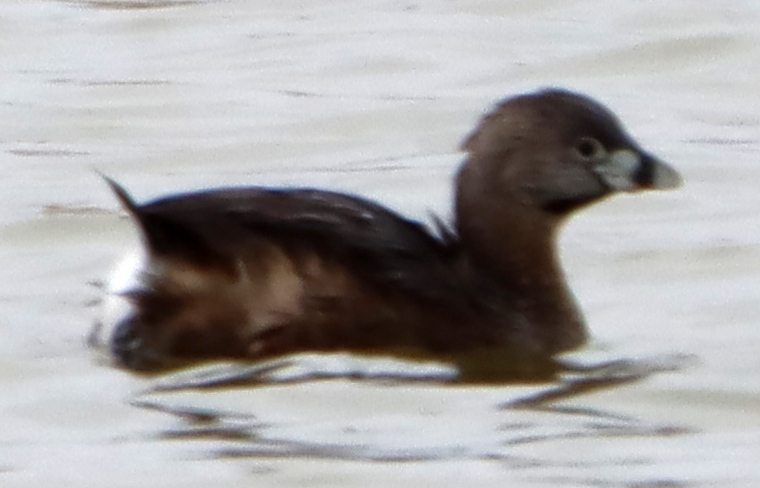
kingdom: Animalia
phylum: Chordata
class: Aves
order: Podicipediformes
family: Podicipedidae
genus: Podilymbus
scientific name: Podilymbus podiceps
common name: Pied-billed grebe
